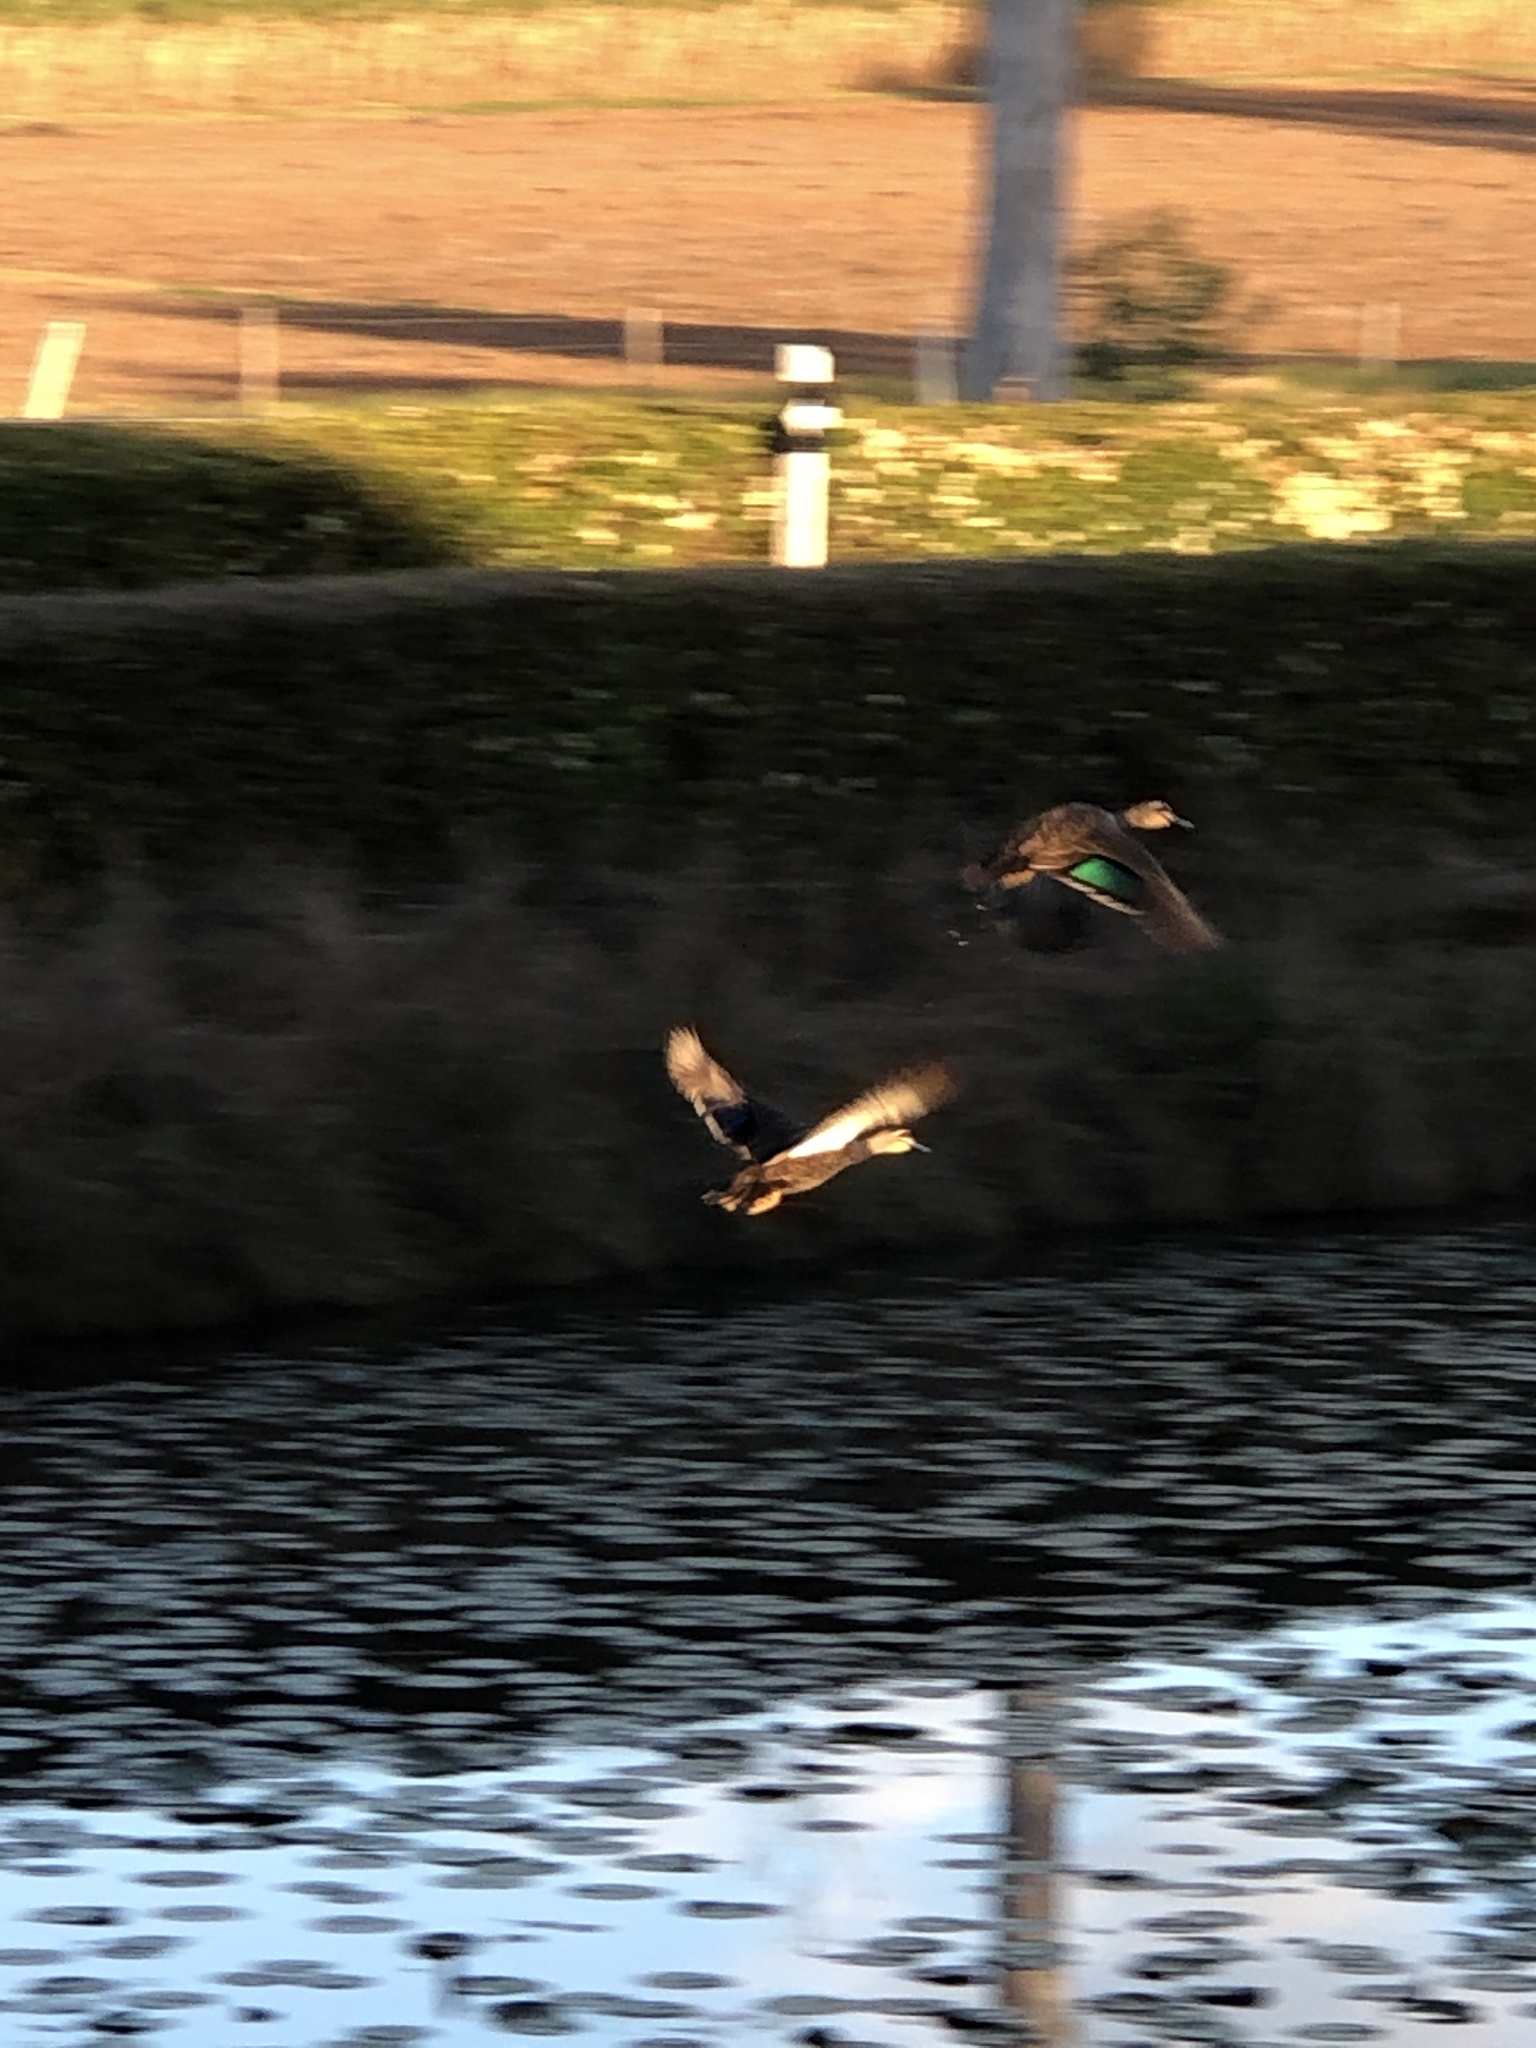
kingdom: Animalia
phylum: Chordata
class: Aves
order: Anseriformes
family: Anatidae
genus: Anas
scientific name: Anas superciliosa
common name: Pacific black duck
